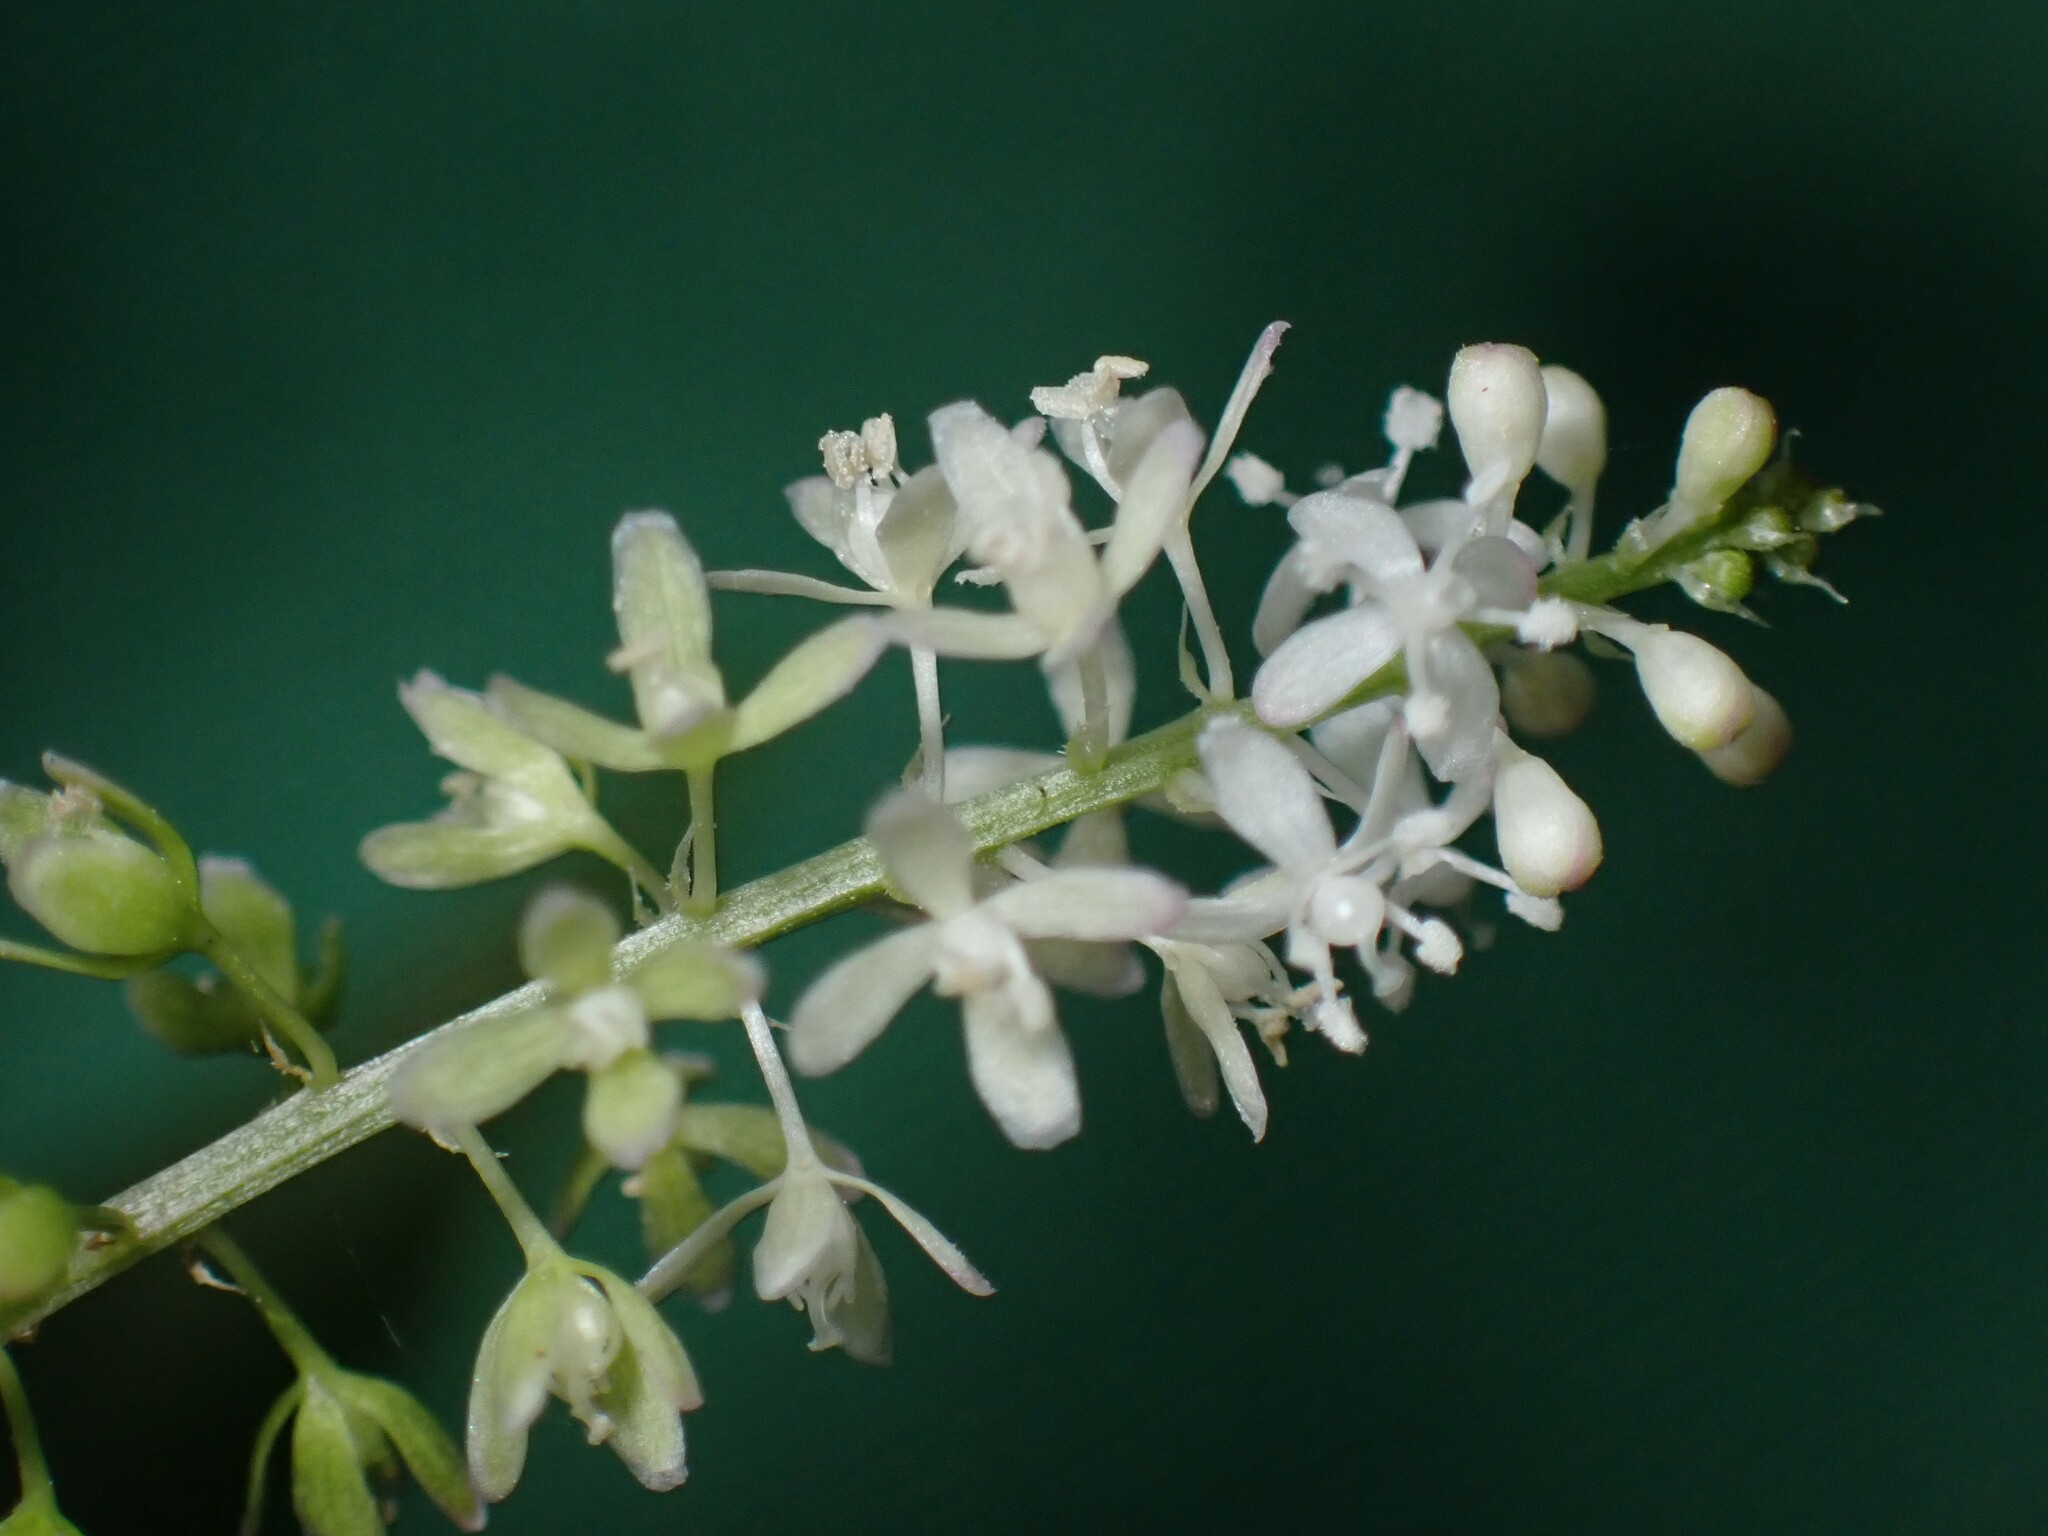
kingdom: Plantae
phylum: Tracheophyta
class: Magnoliopsida
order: Caryophyllales
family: Phytolaccaceae
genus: Rivina
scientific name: Rivina humilis
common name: Rougeplant
